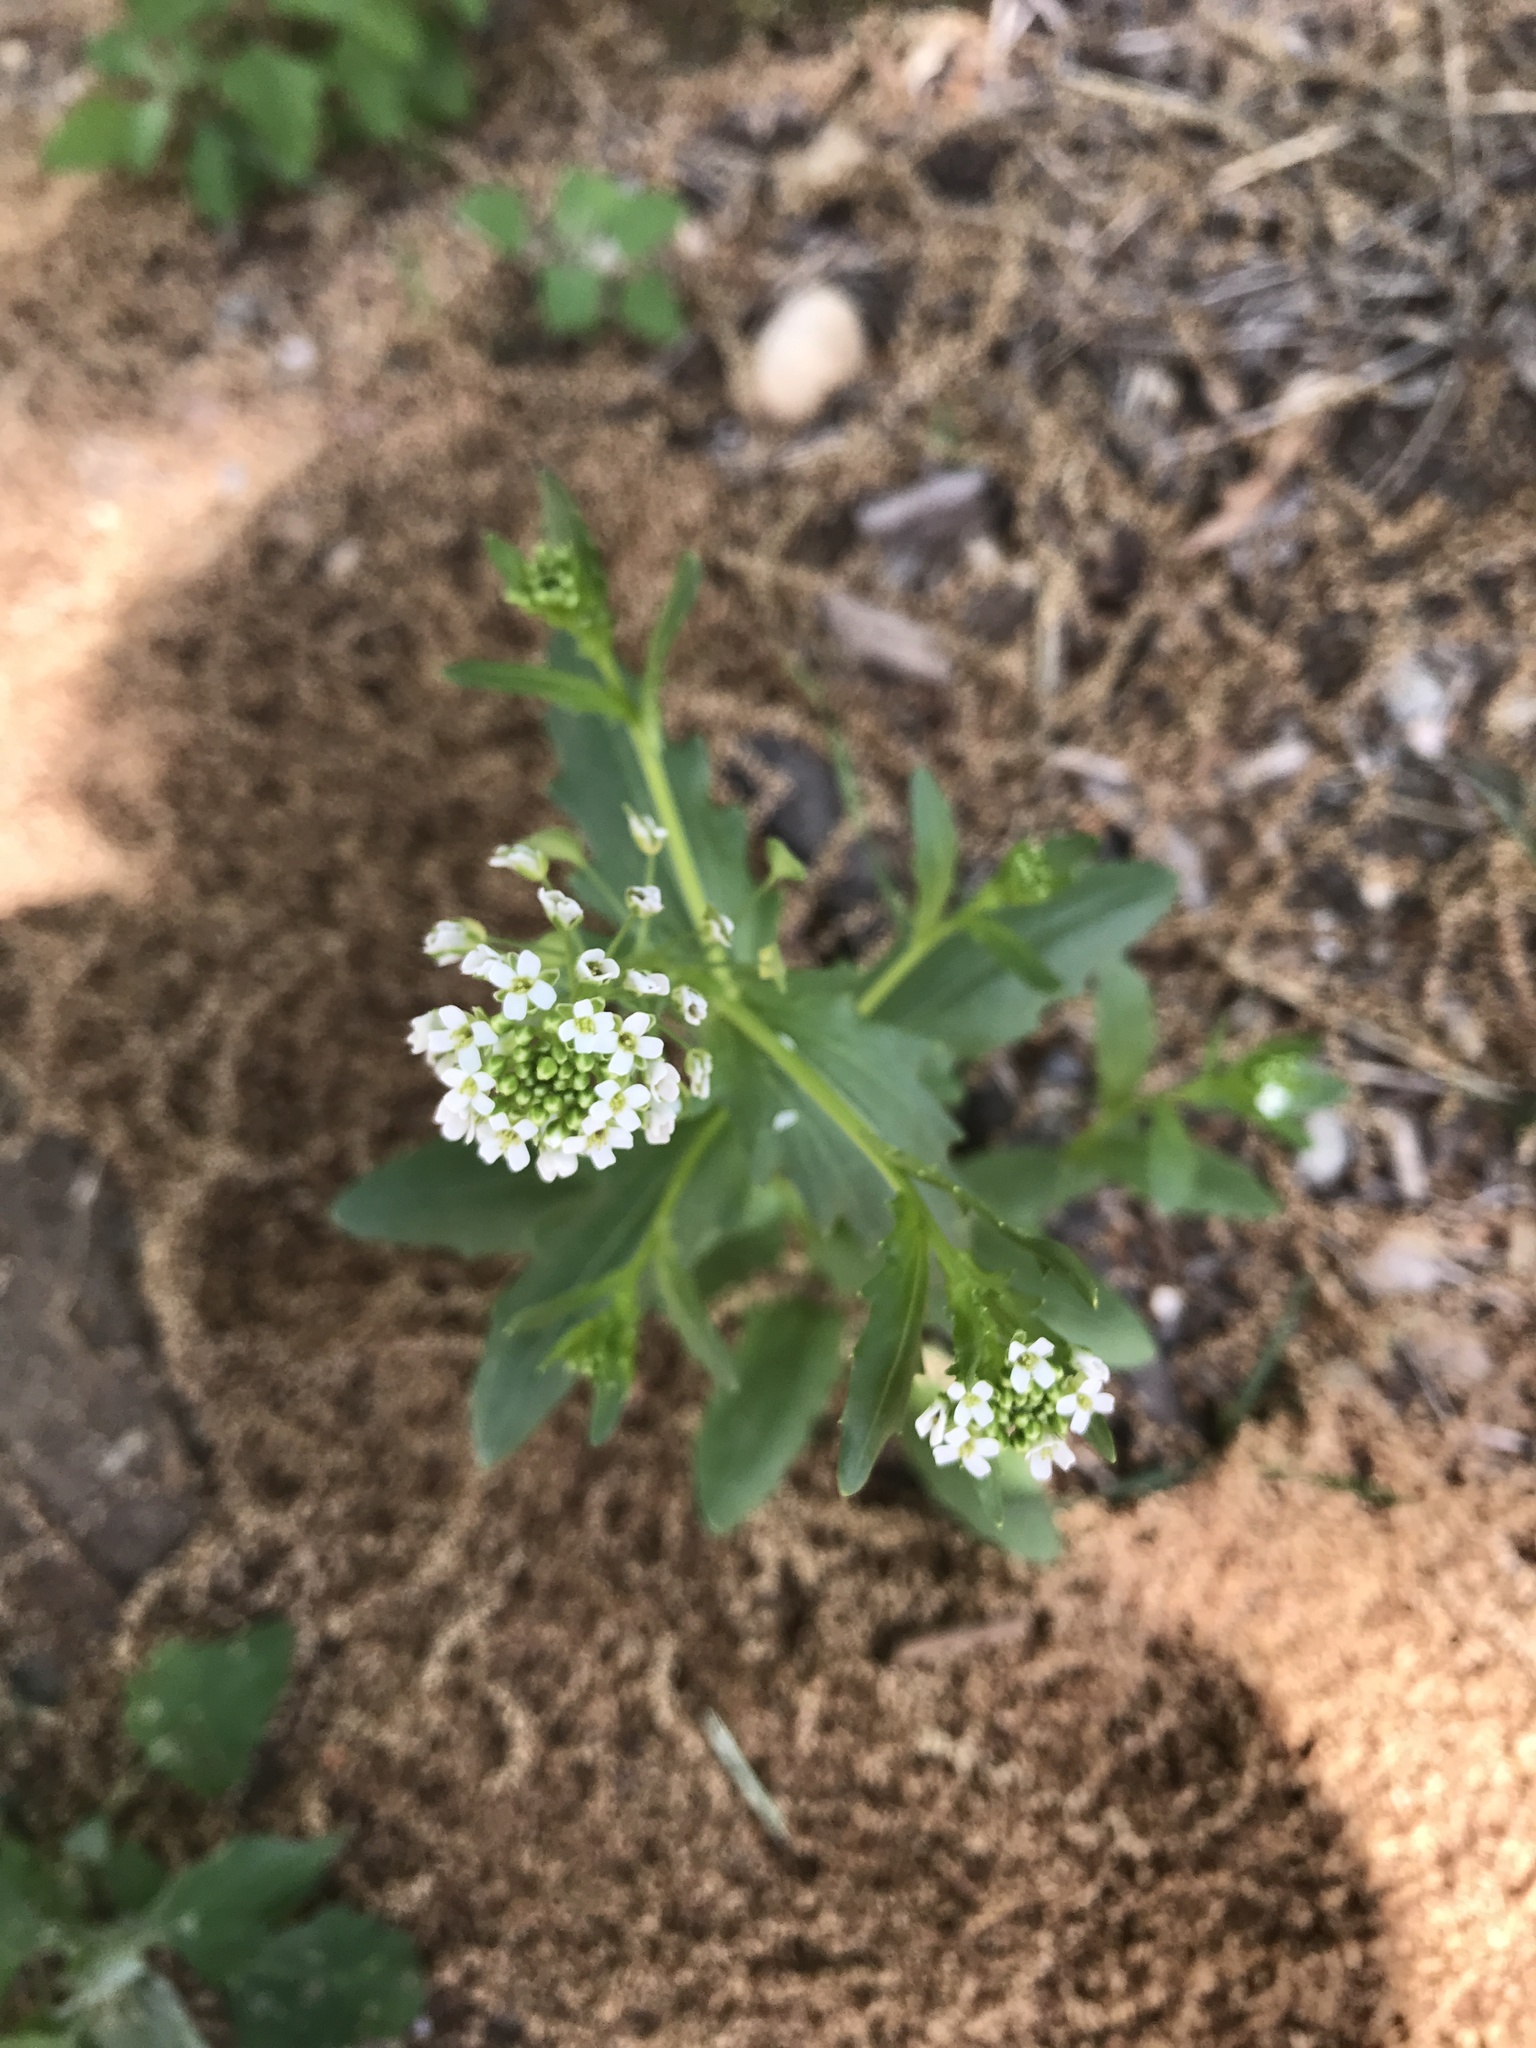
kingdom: Plantae
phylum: Tracheophyta
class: Magnoliopsida
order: Brassicales
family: Brassicaceae
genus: Thlaspi
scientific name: Thlaspi arvense
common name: Field pennycress
